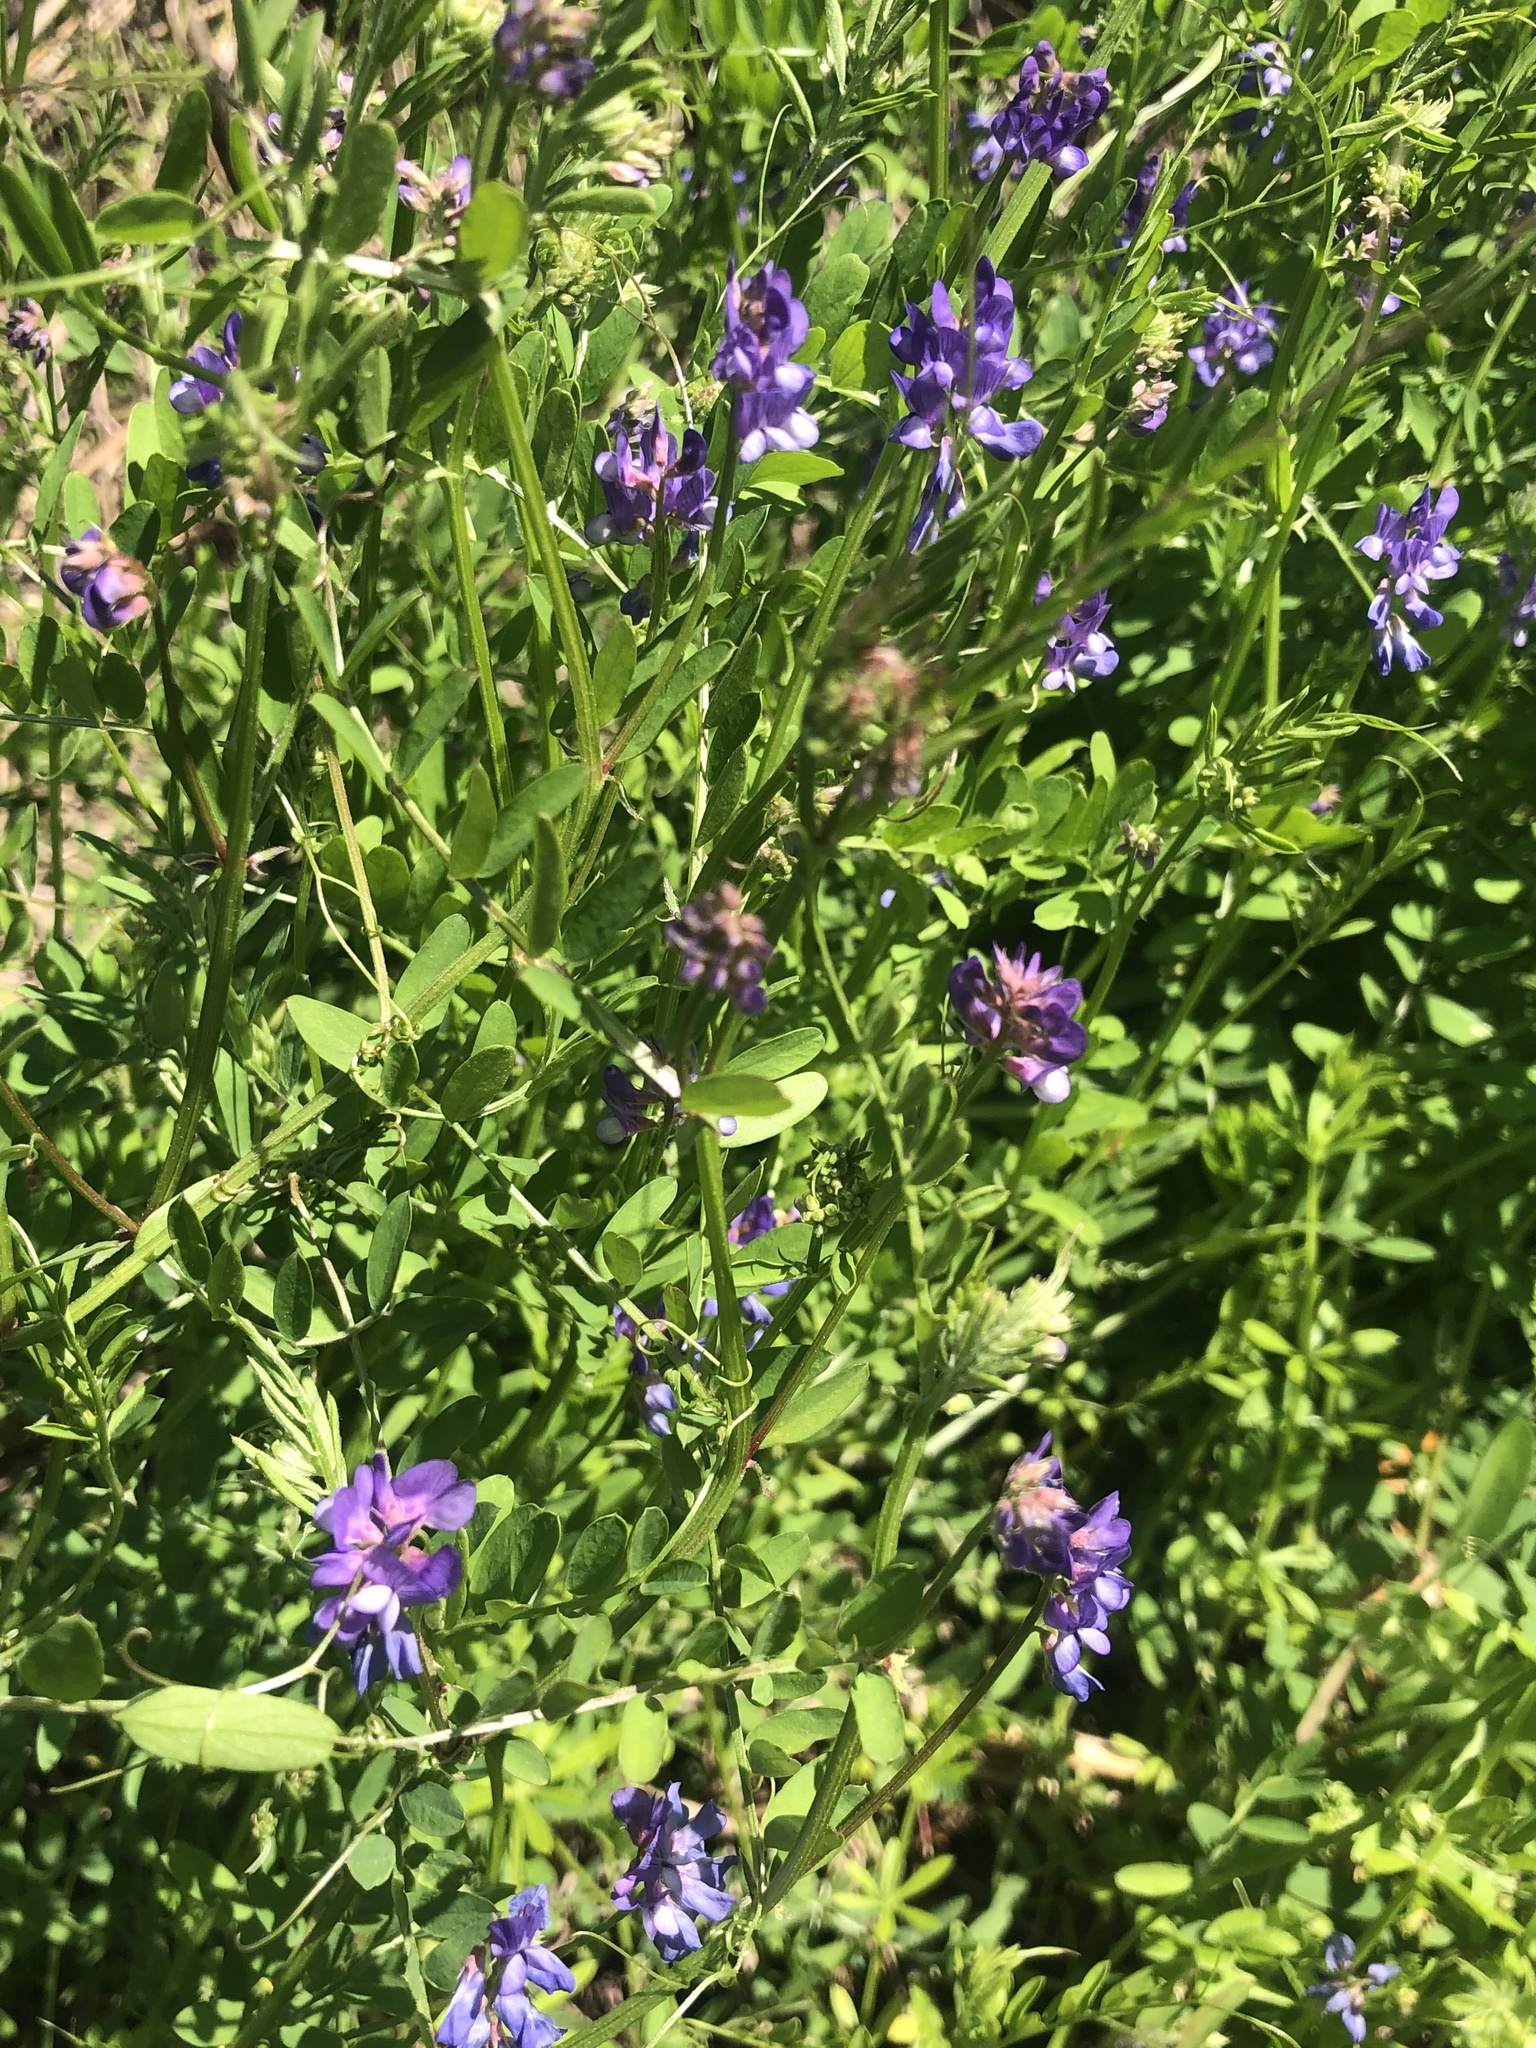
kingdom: Plantae
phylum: Tracheophyta
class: Magnoliopsida
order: Fabales
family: Fabaceae
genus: Vicia
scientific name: Vicia ludoviciana
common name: Louisiana vetch
